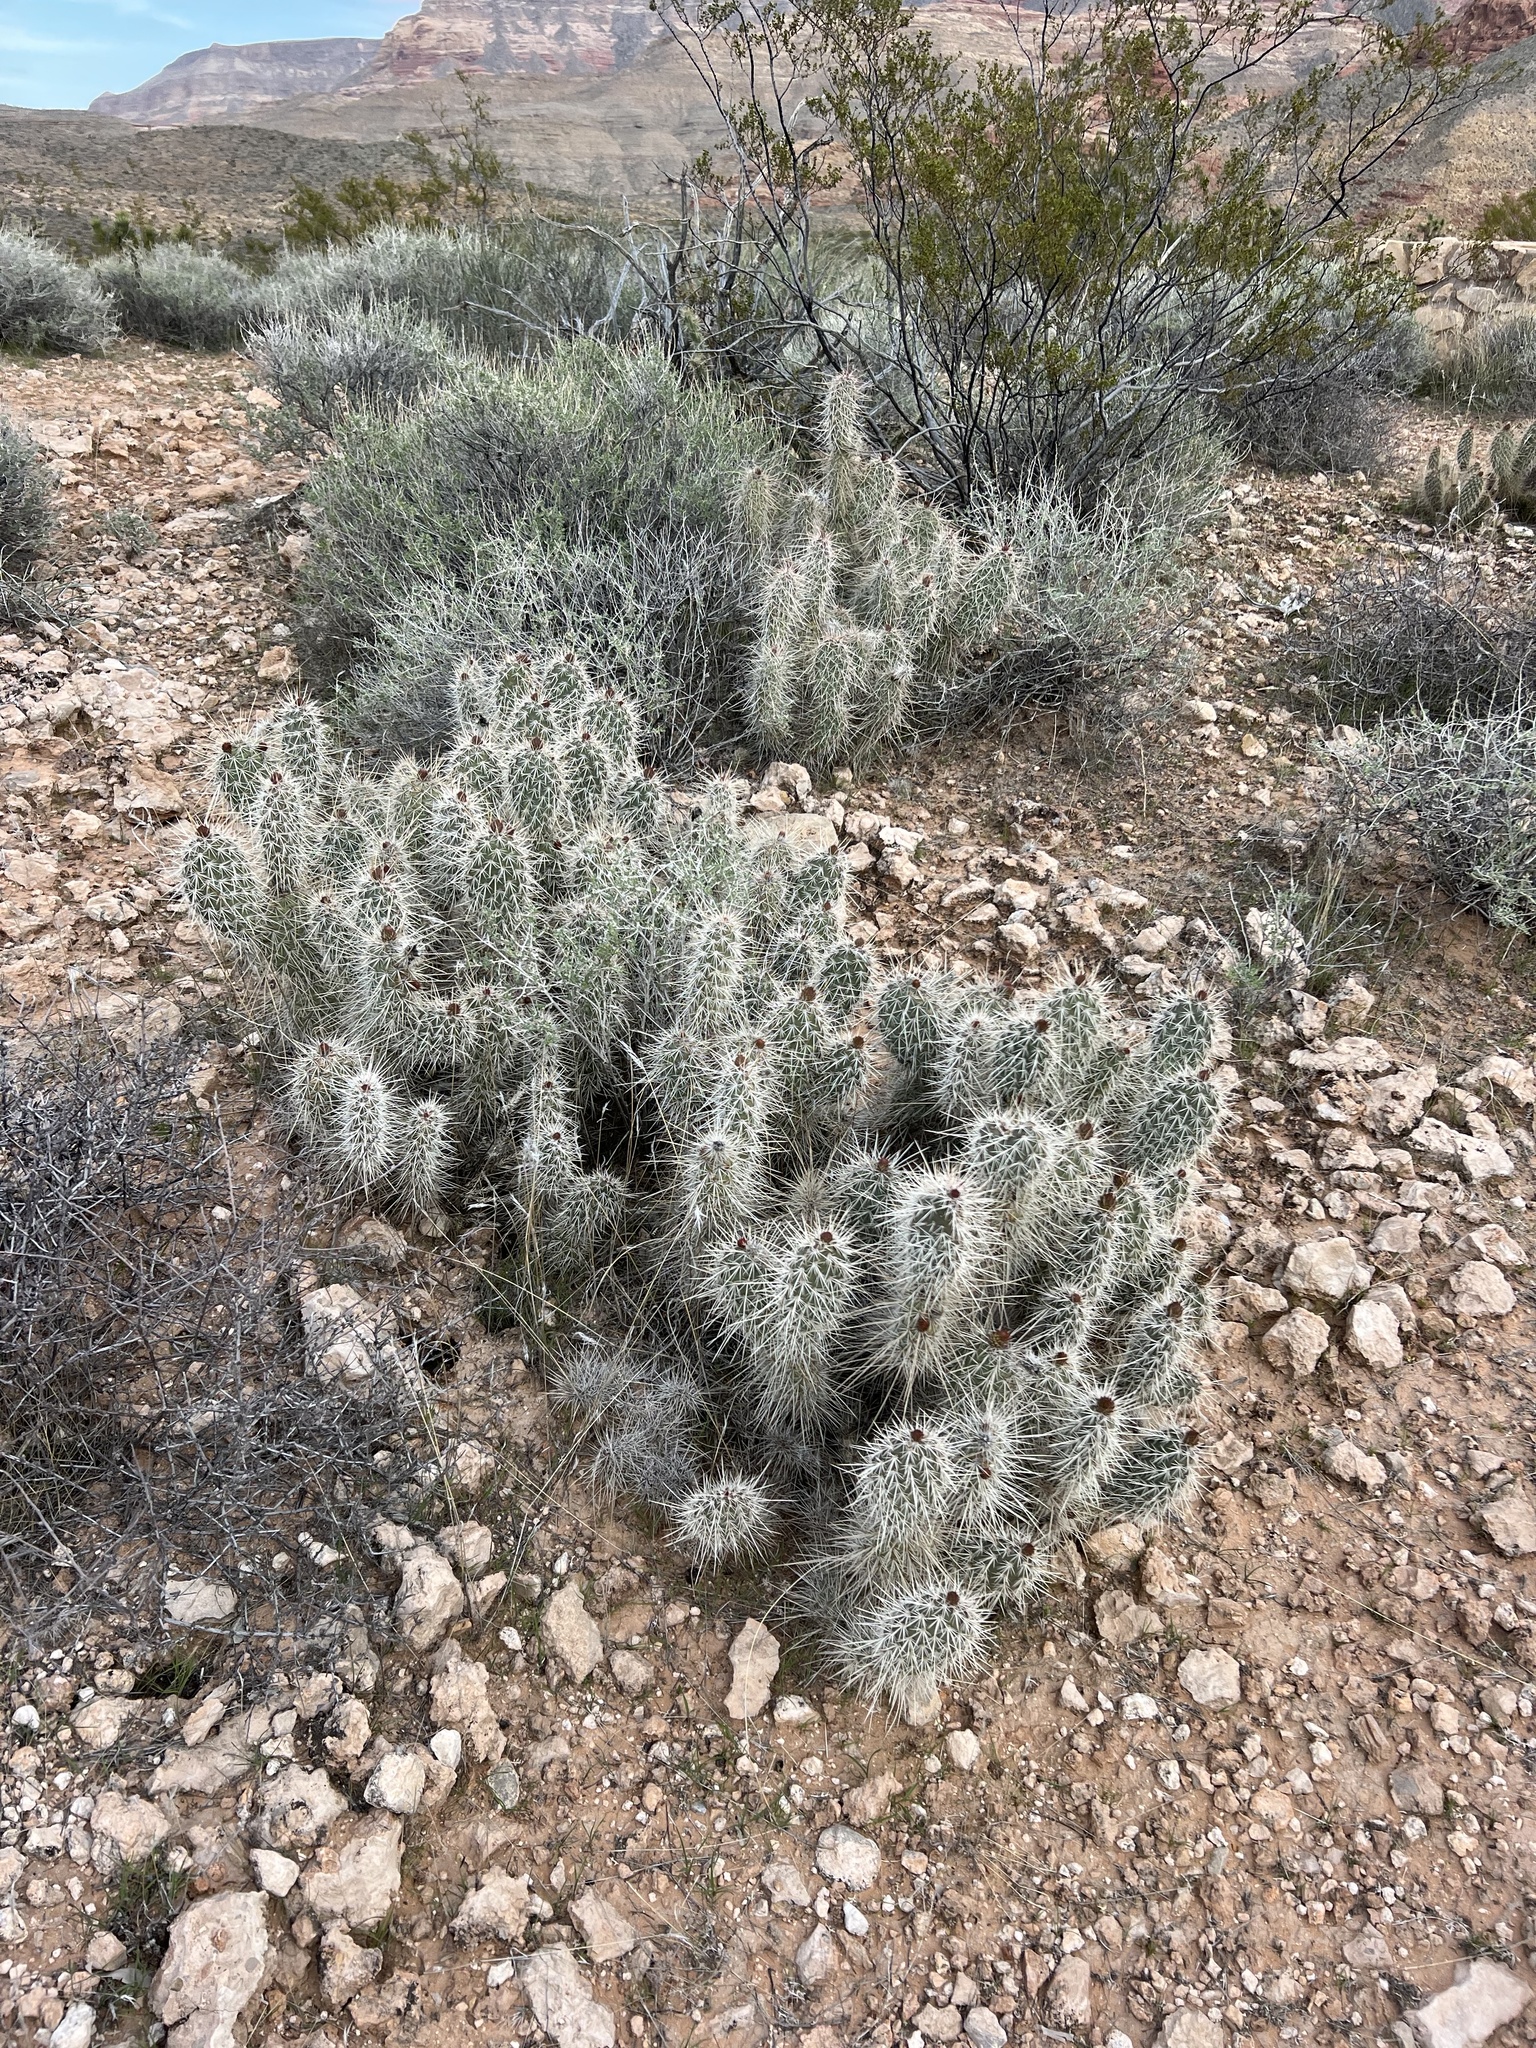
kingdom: Plantae
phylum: Tracheophyta
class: Magnoliopsida
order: Caryophyllales
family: Cactaceae
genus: Opuntia
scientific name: Opuntia polyacantha
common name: Plains prickly-pear
